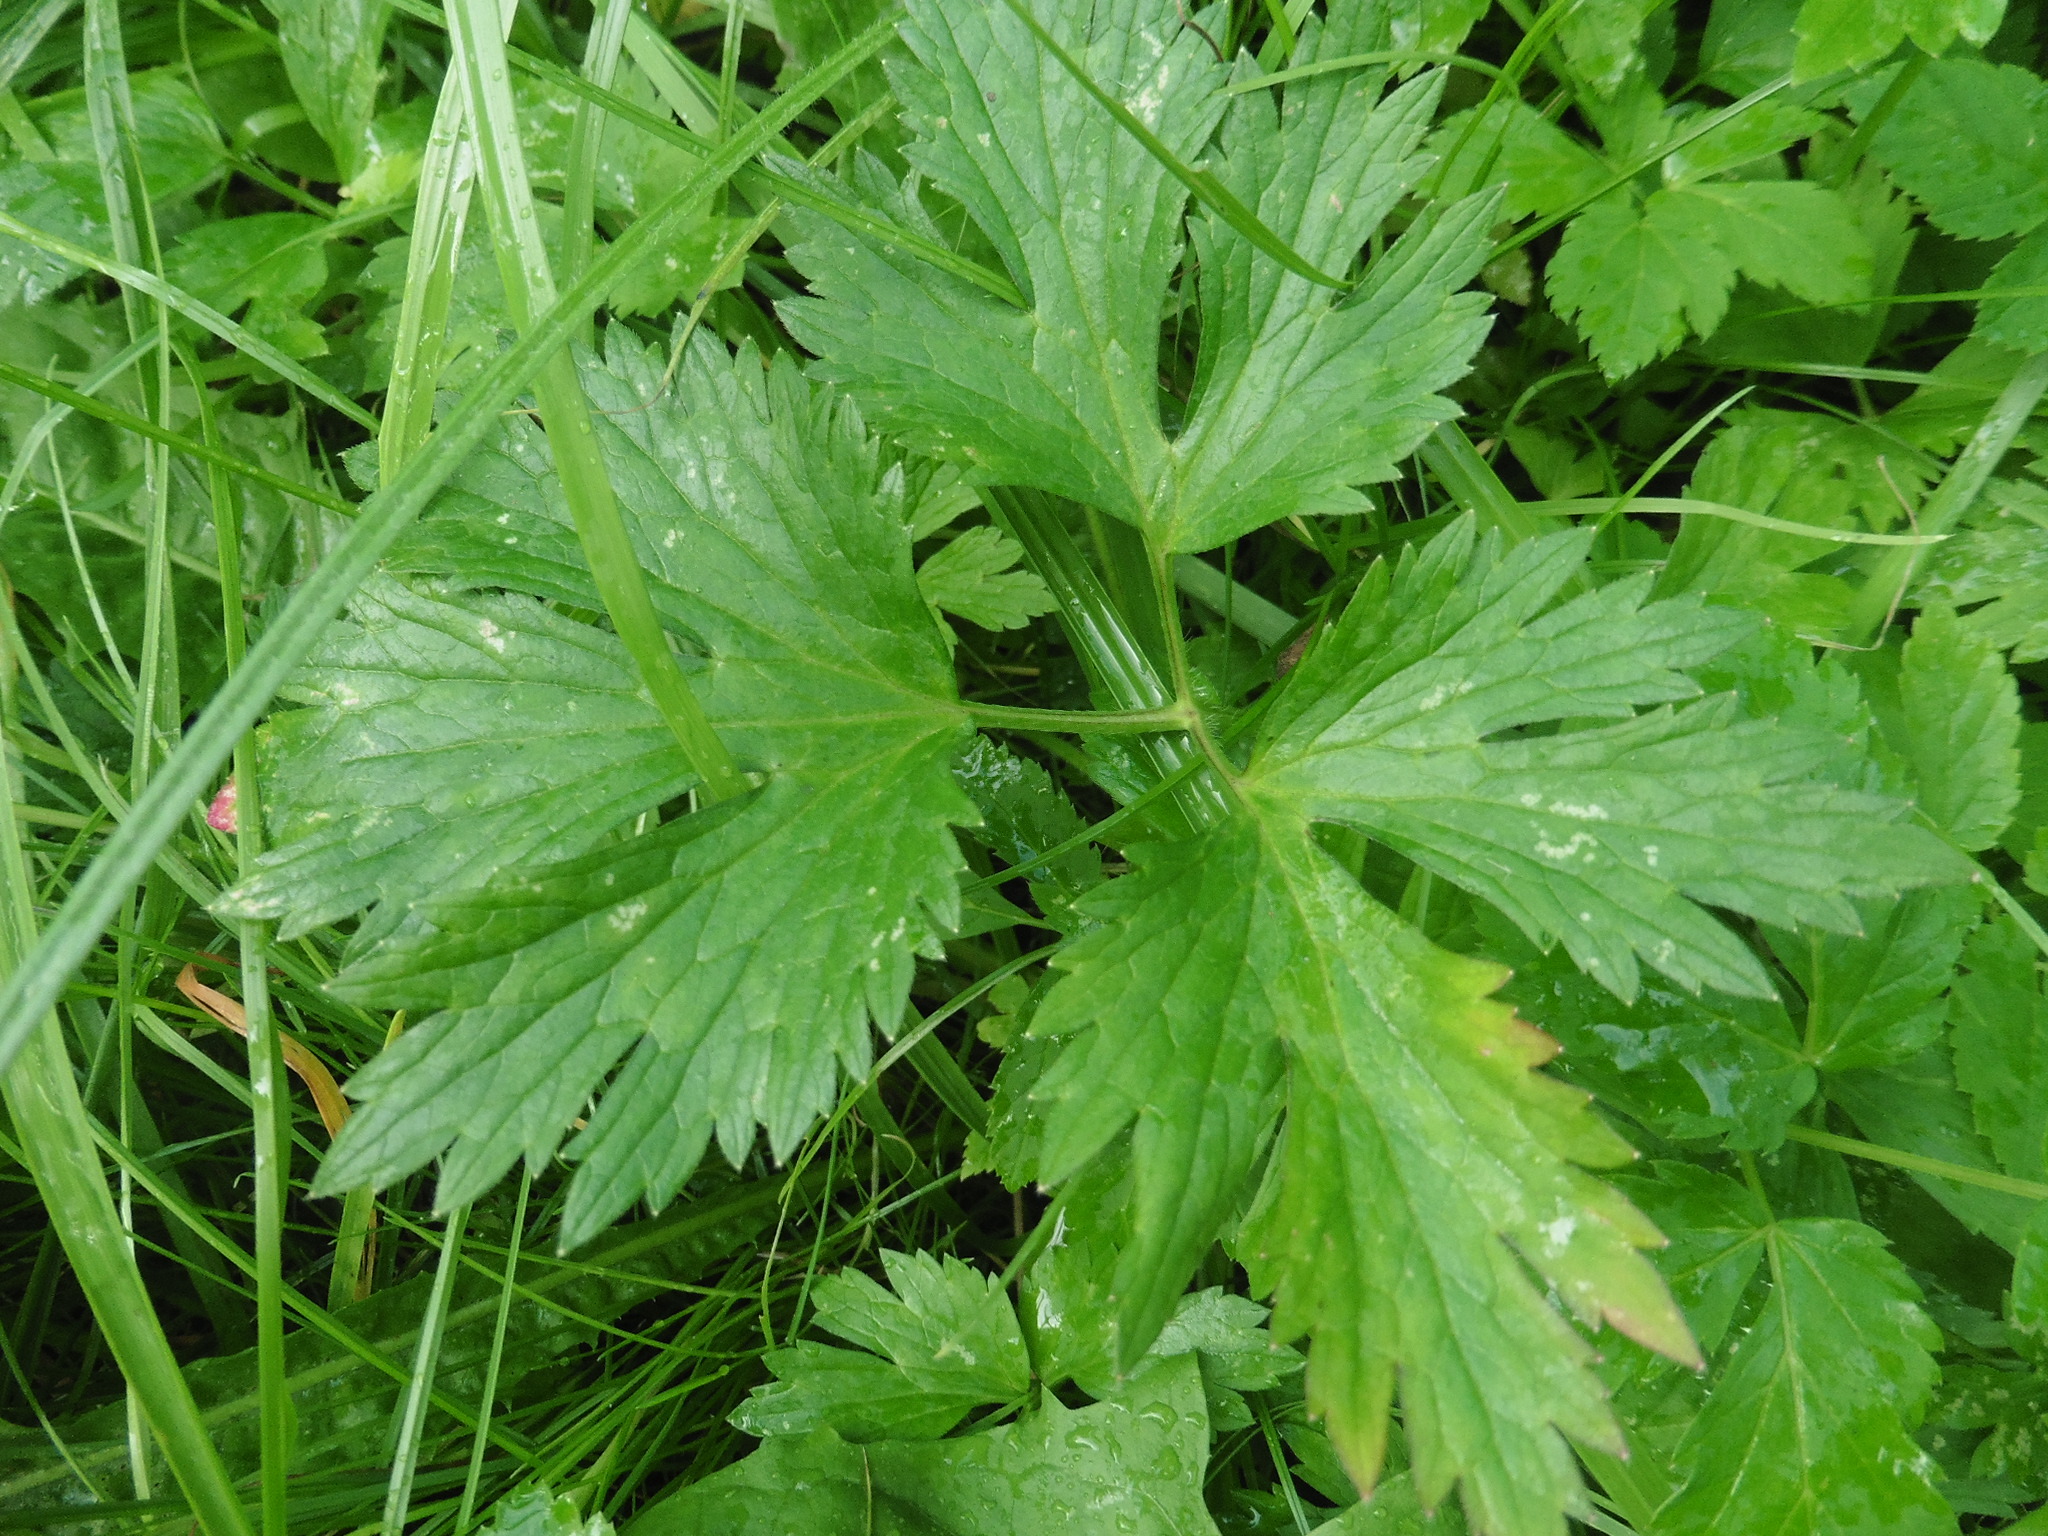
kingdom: Plantae
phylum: Tracheophyta
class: Magnoliopsida
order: Ranunculales
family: Ranunculaceae
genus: Ranunculus
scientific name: Ranunculus repens
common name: Creeping buttercup
